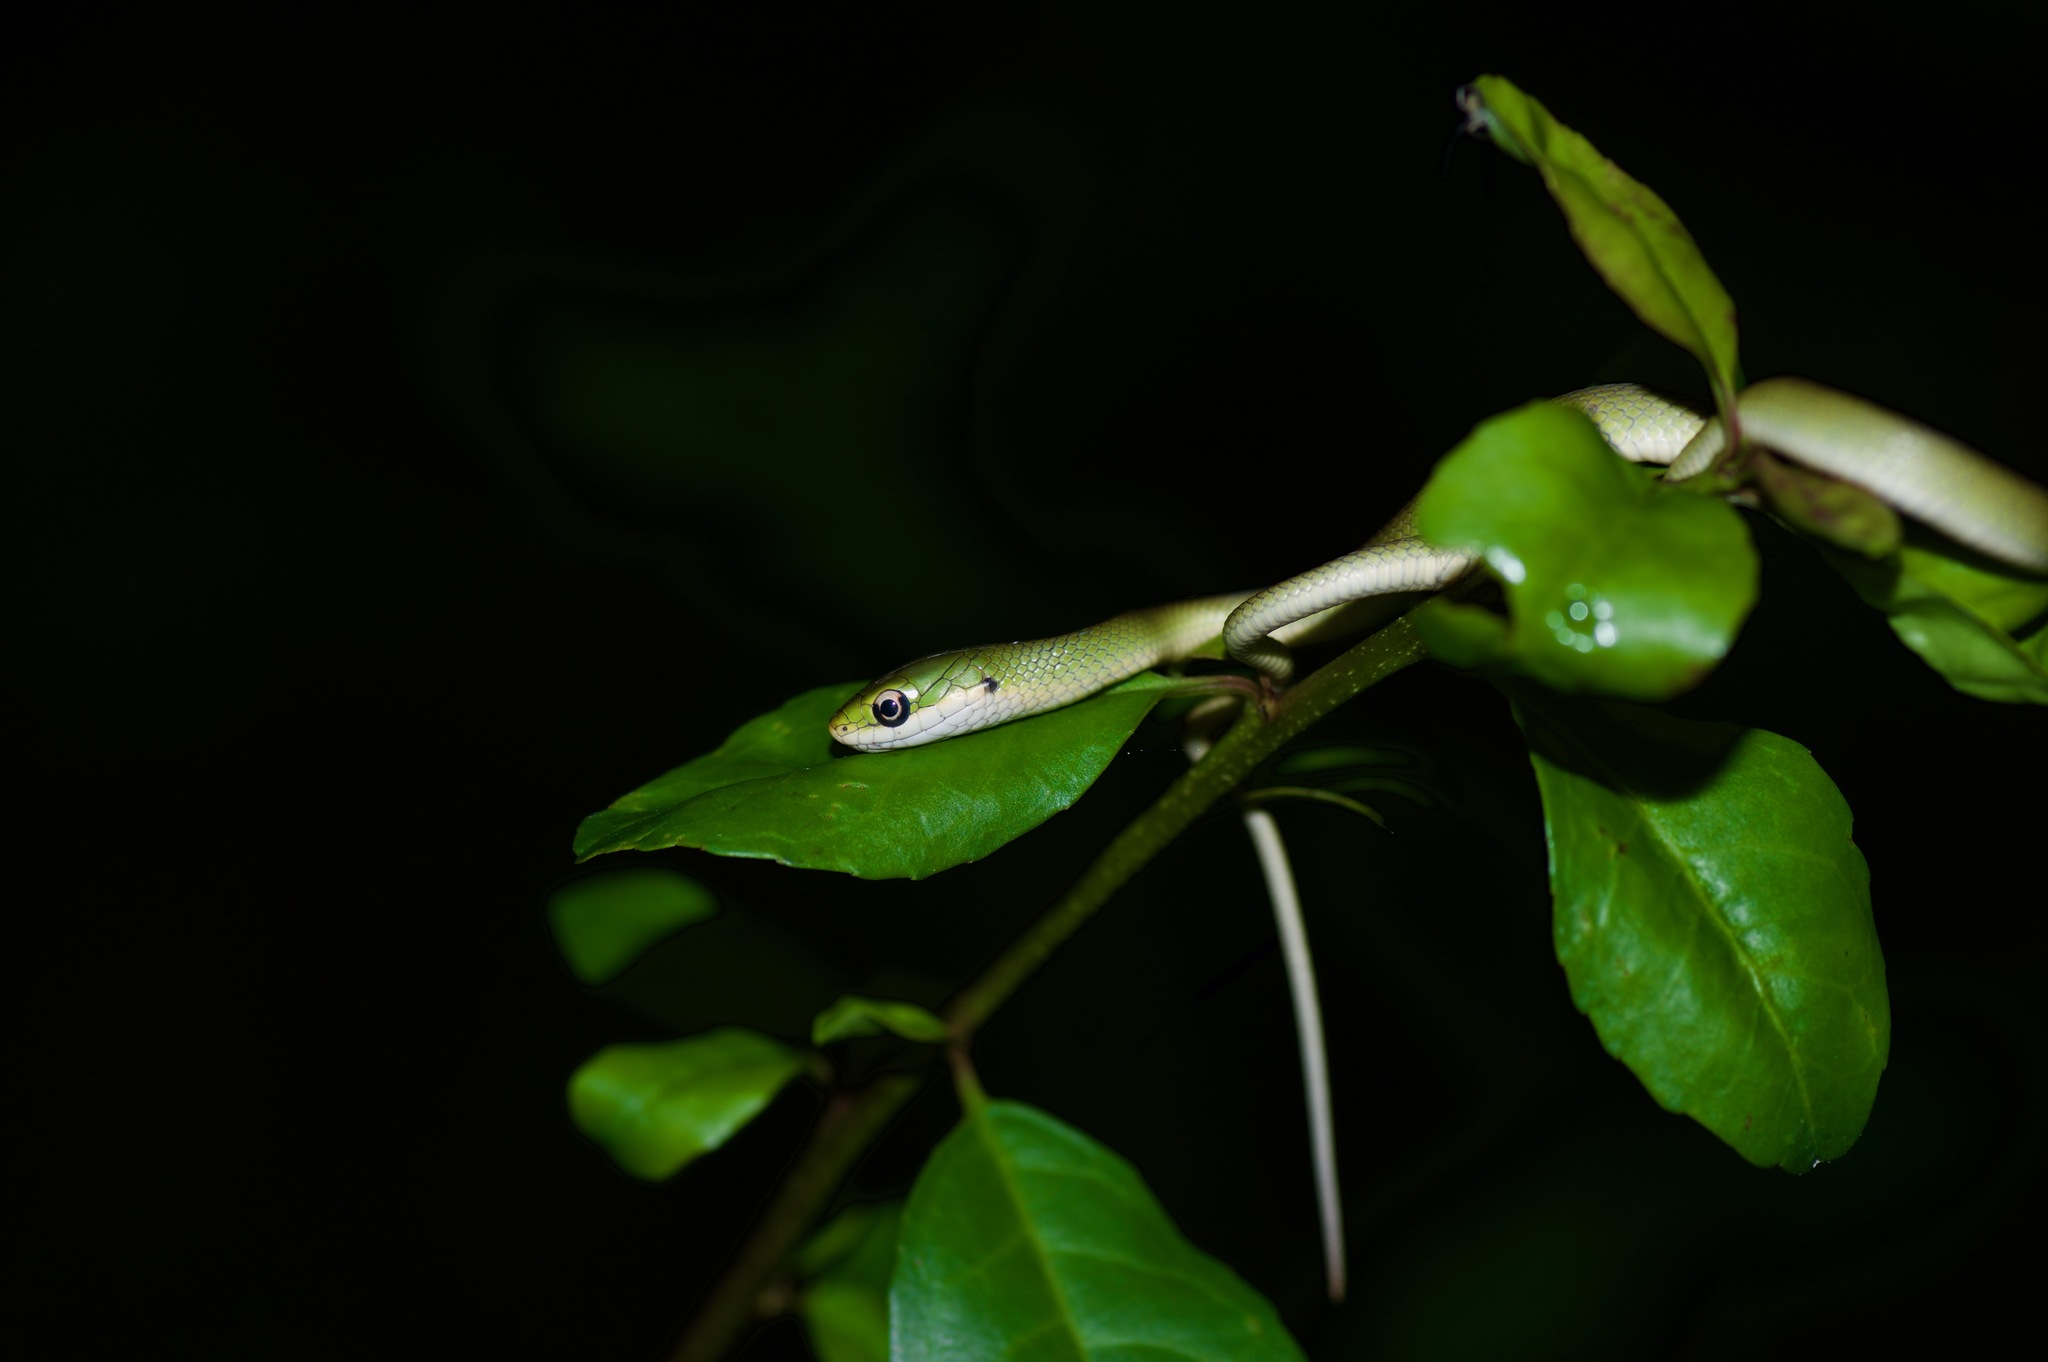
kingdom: Animalia
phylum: Chordata
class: Squamata
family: Colubridae
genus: Opheodrys
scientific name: Opheodrys aestivus
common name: Rough greensnake
